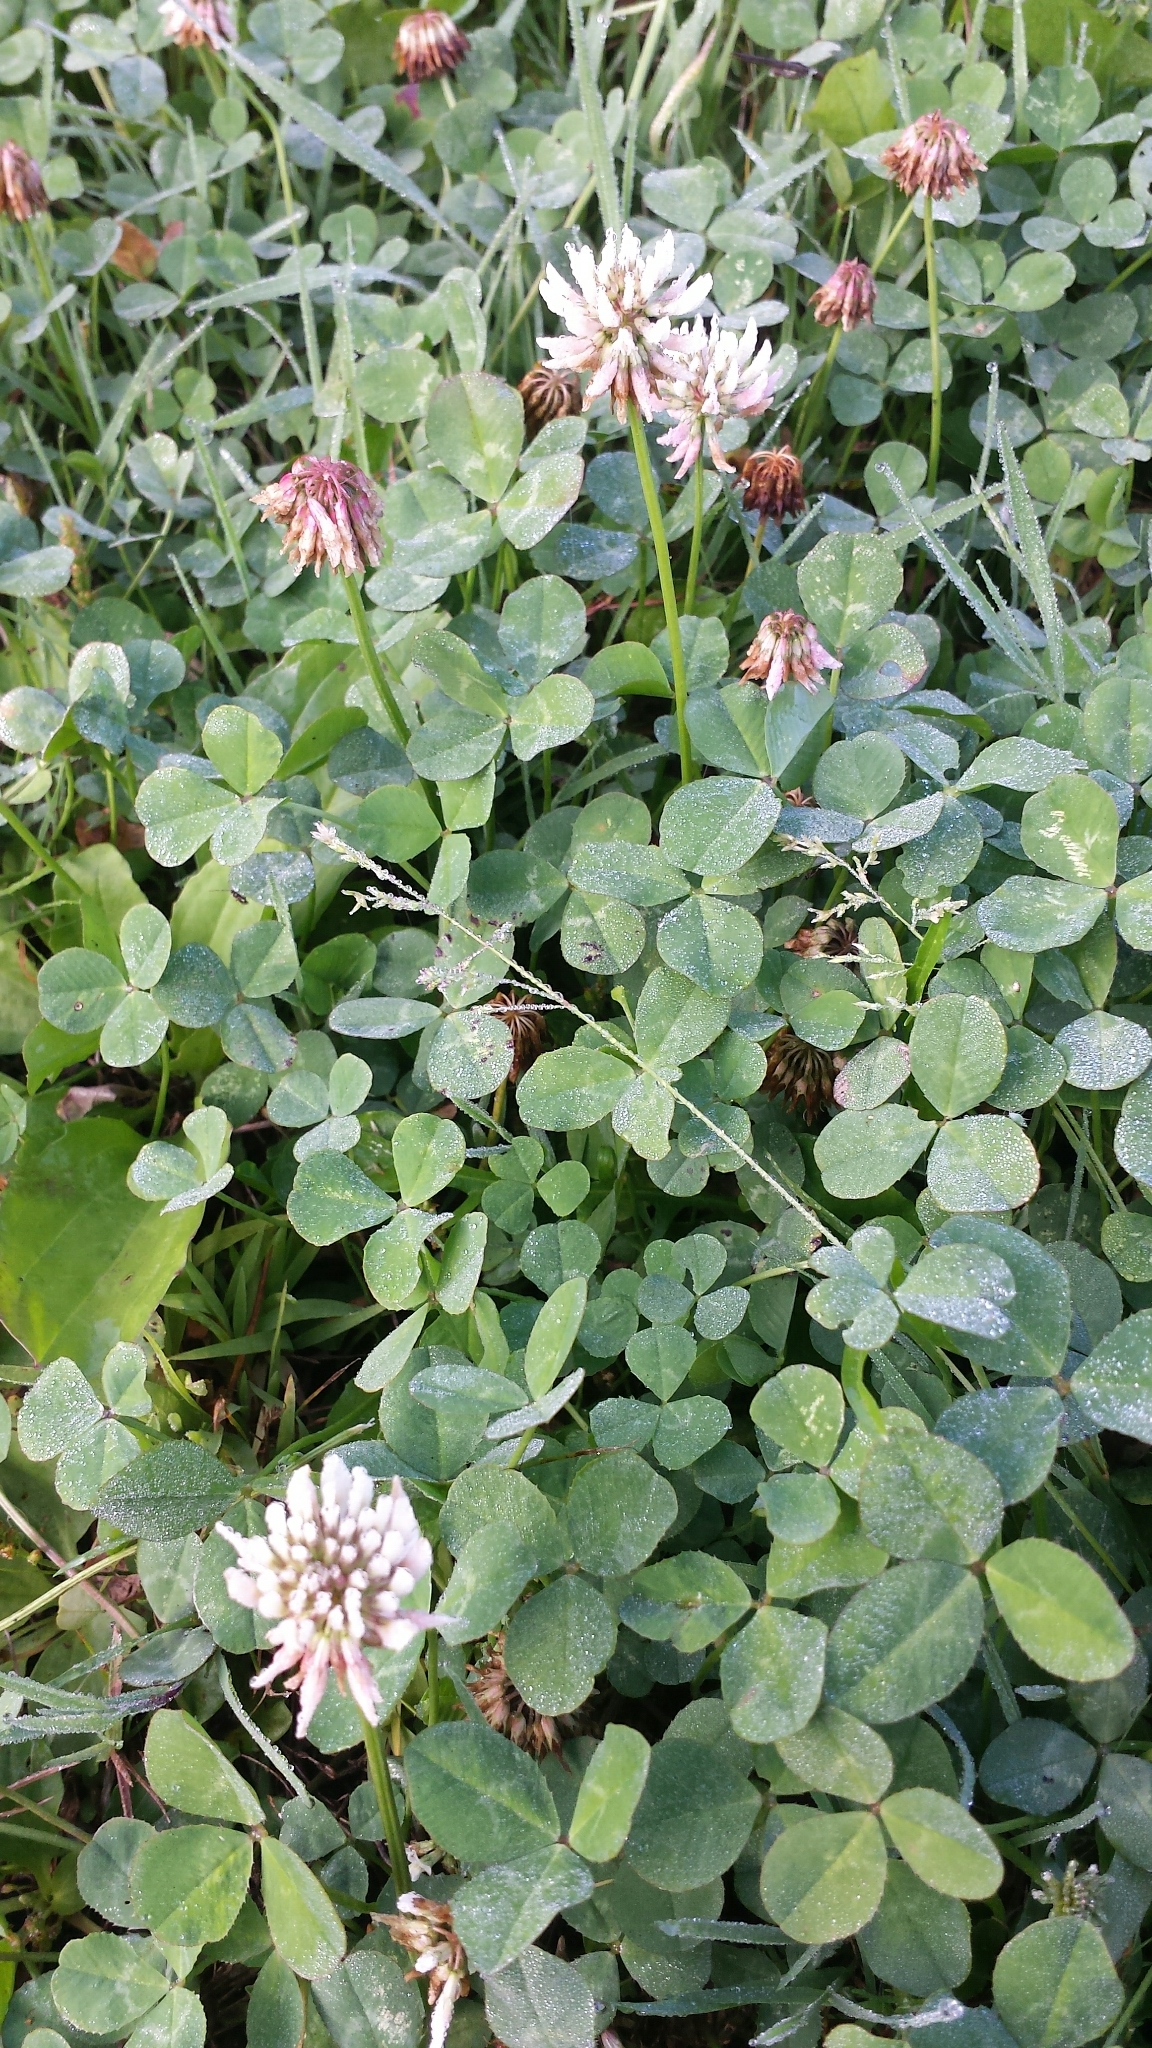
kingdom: Plantae
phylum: Tracheophyta
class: Magnoliopsida
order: Fabales
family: Fabaceae
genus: Trifolium
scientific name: Trifolium repens
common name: White clover
